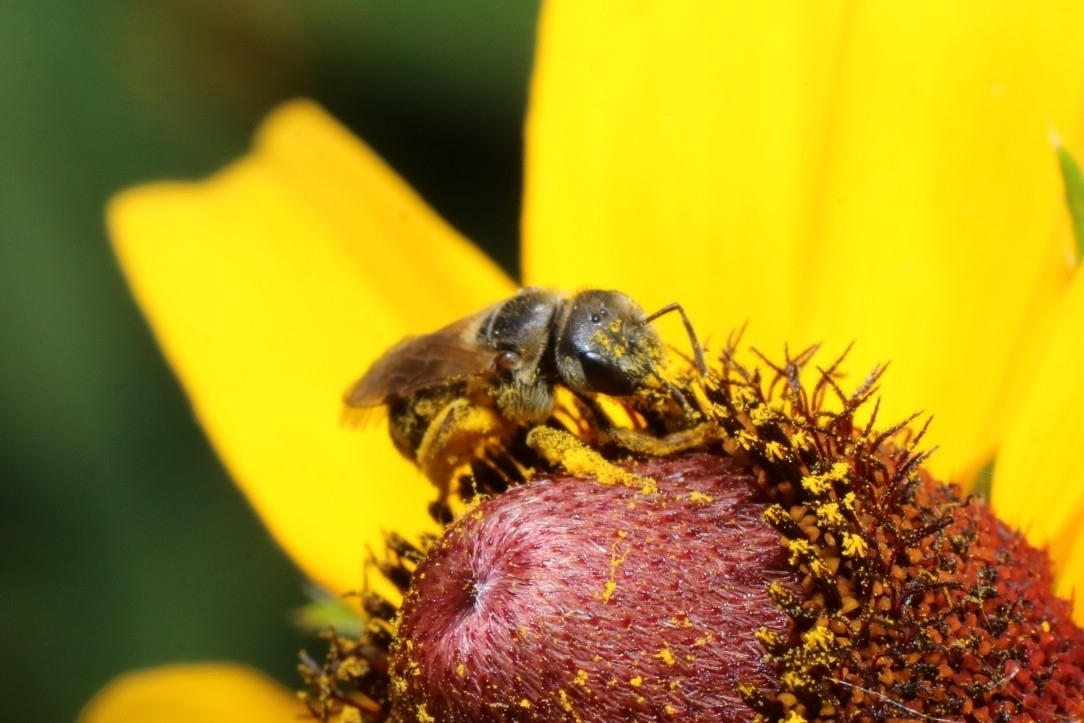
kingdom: Animalia
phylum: Arthropoda
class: Insecta
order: Hymenoptera
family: Halictidae
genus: Halictus
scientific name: Halictus ligatus
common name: Ligated furrow bee
